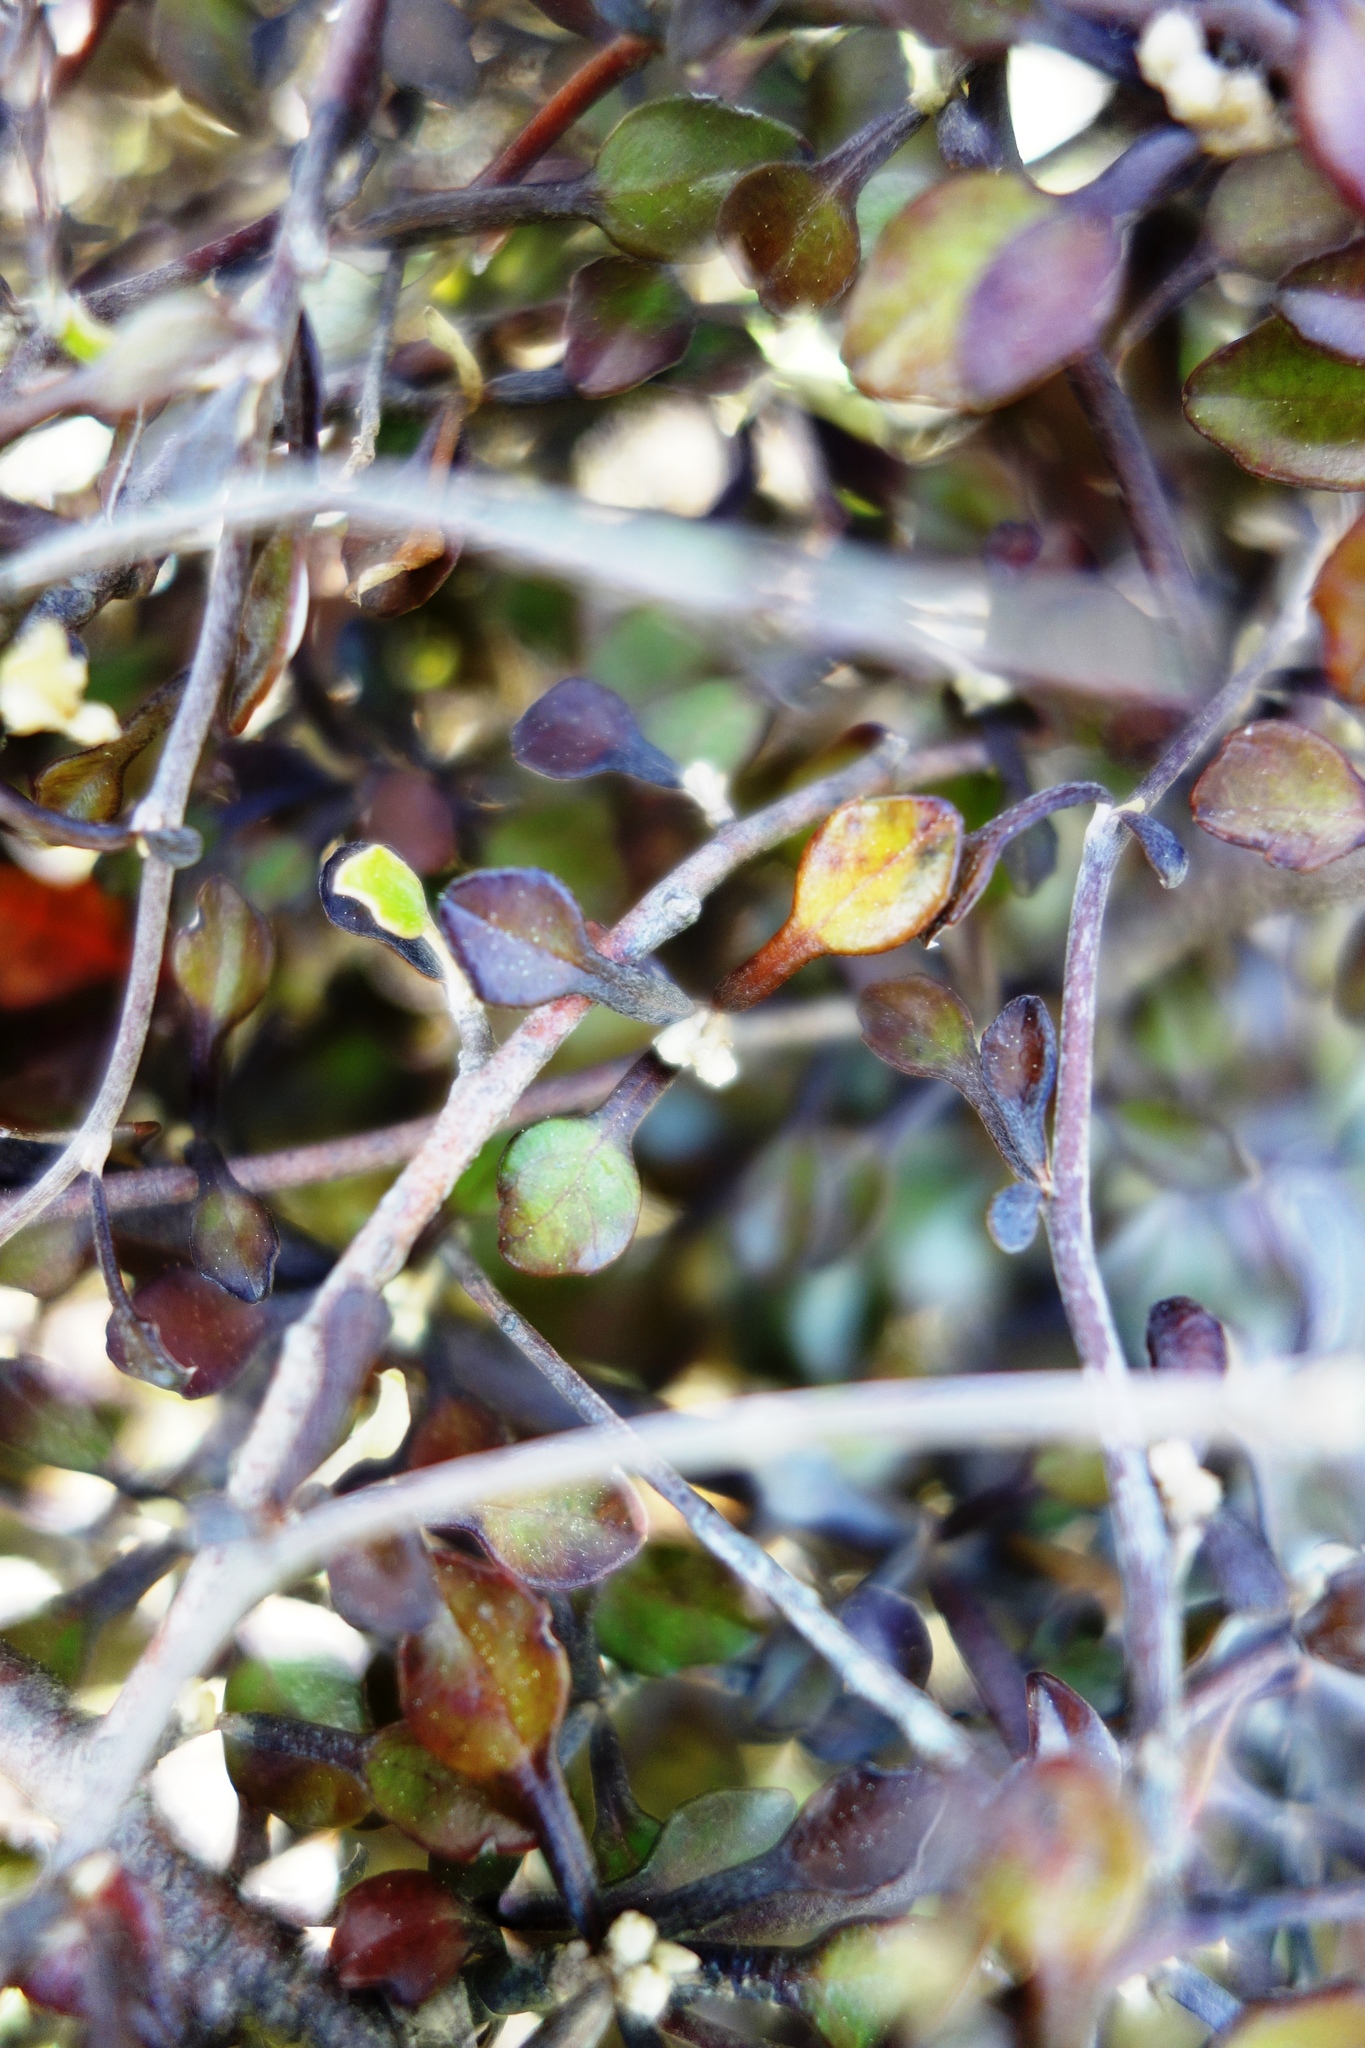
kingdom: Plantae
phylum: Tracheophyta
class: Magnoliopsida
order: Asterales
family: Argophyllaceae
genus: Corokia
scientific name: Corokia cotoneaster
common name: Wire nettingbush
